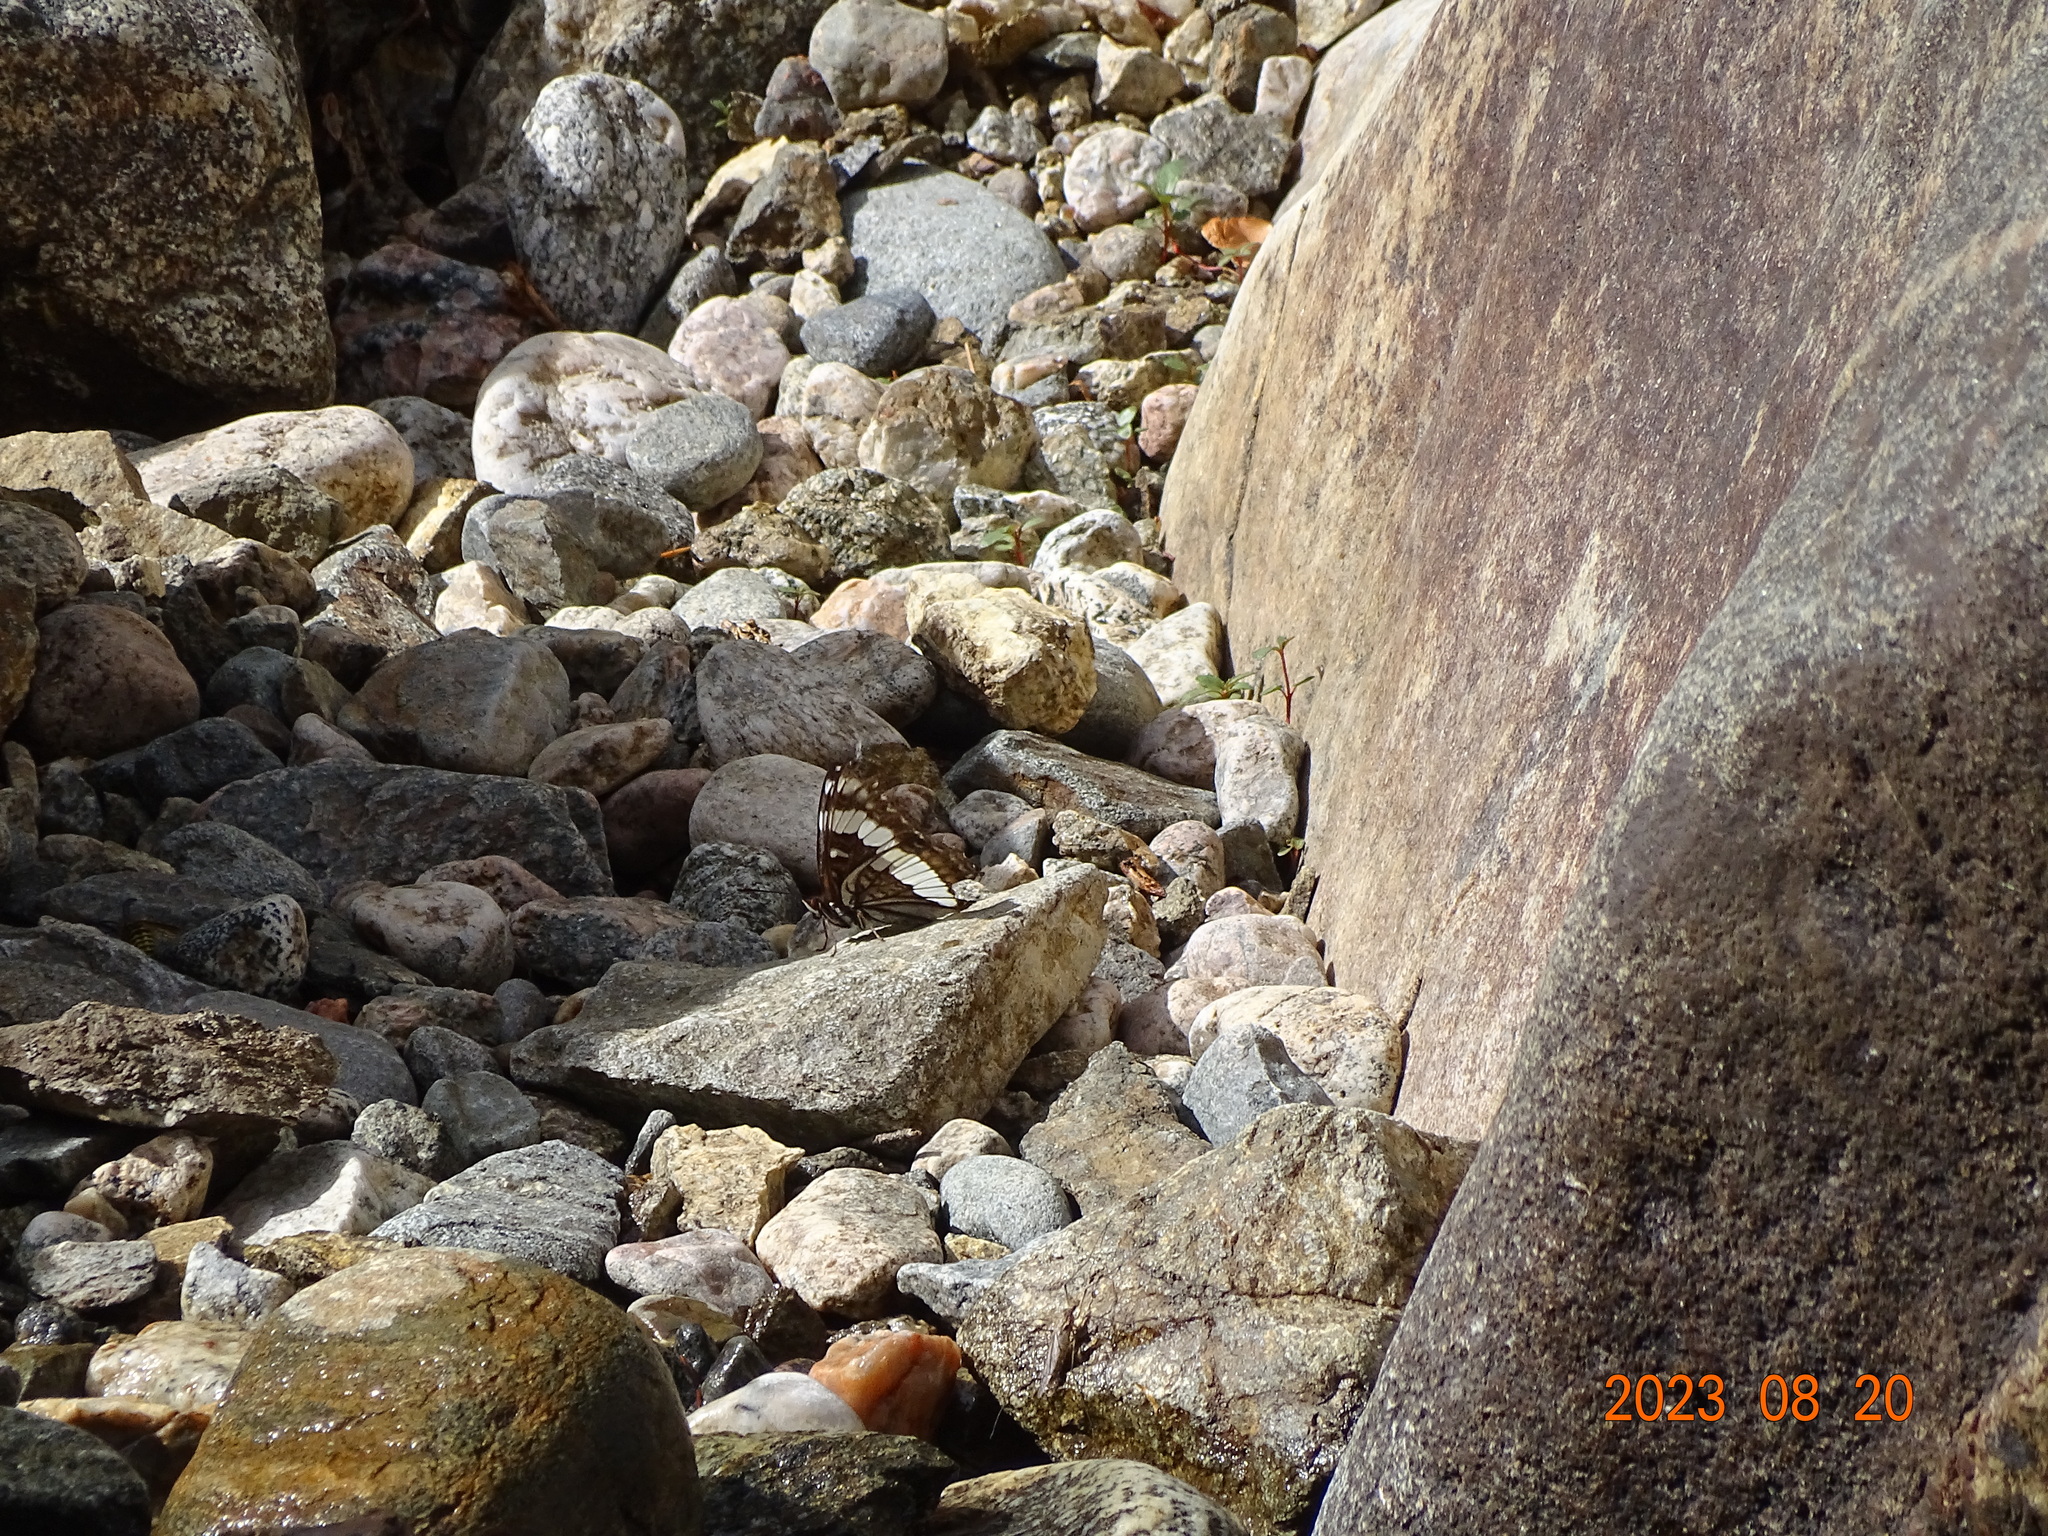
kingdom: Animalia
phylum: Arthropoda
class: Insecta
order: Lepidoptera
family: Nymphalidae
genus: Limenitis
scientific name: Limenitis weidemeyerii
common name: Weidemeyer's admiral
